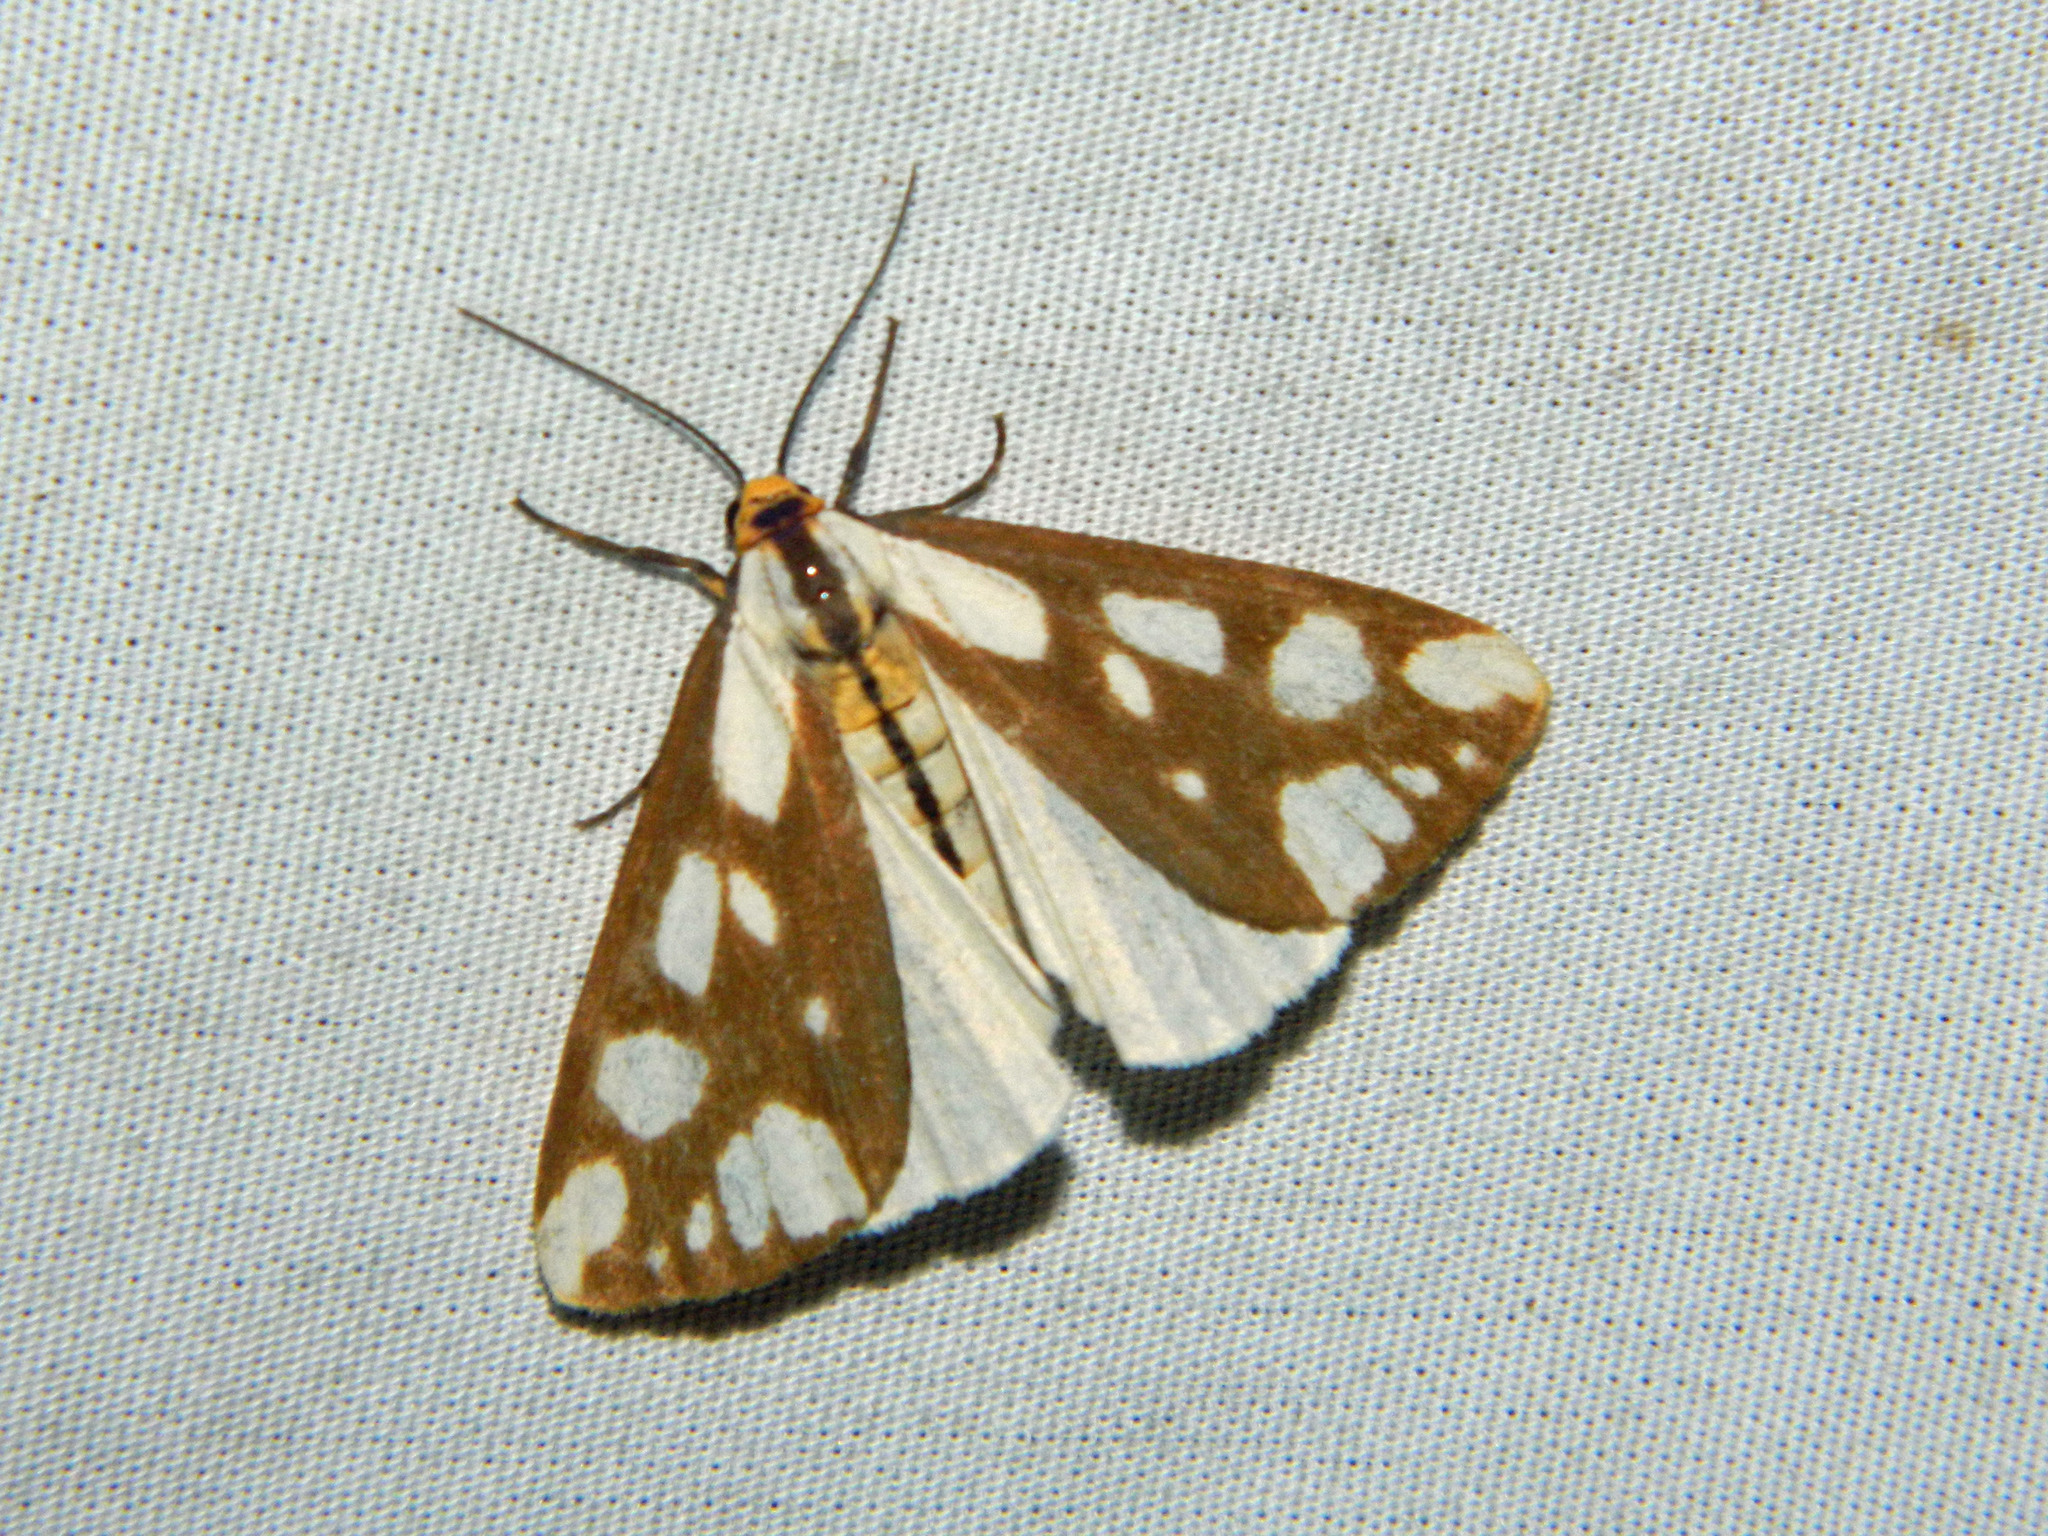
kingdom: Animalia
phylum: Arthropoda
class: Insecta
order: Lepidoptera
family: Erebidae
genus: Haploa
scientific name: Haploa confusa
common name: Confused haploa moth
